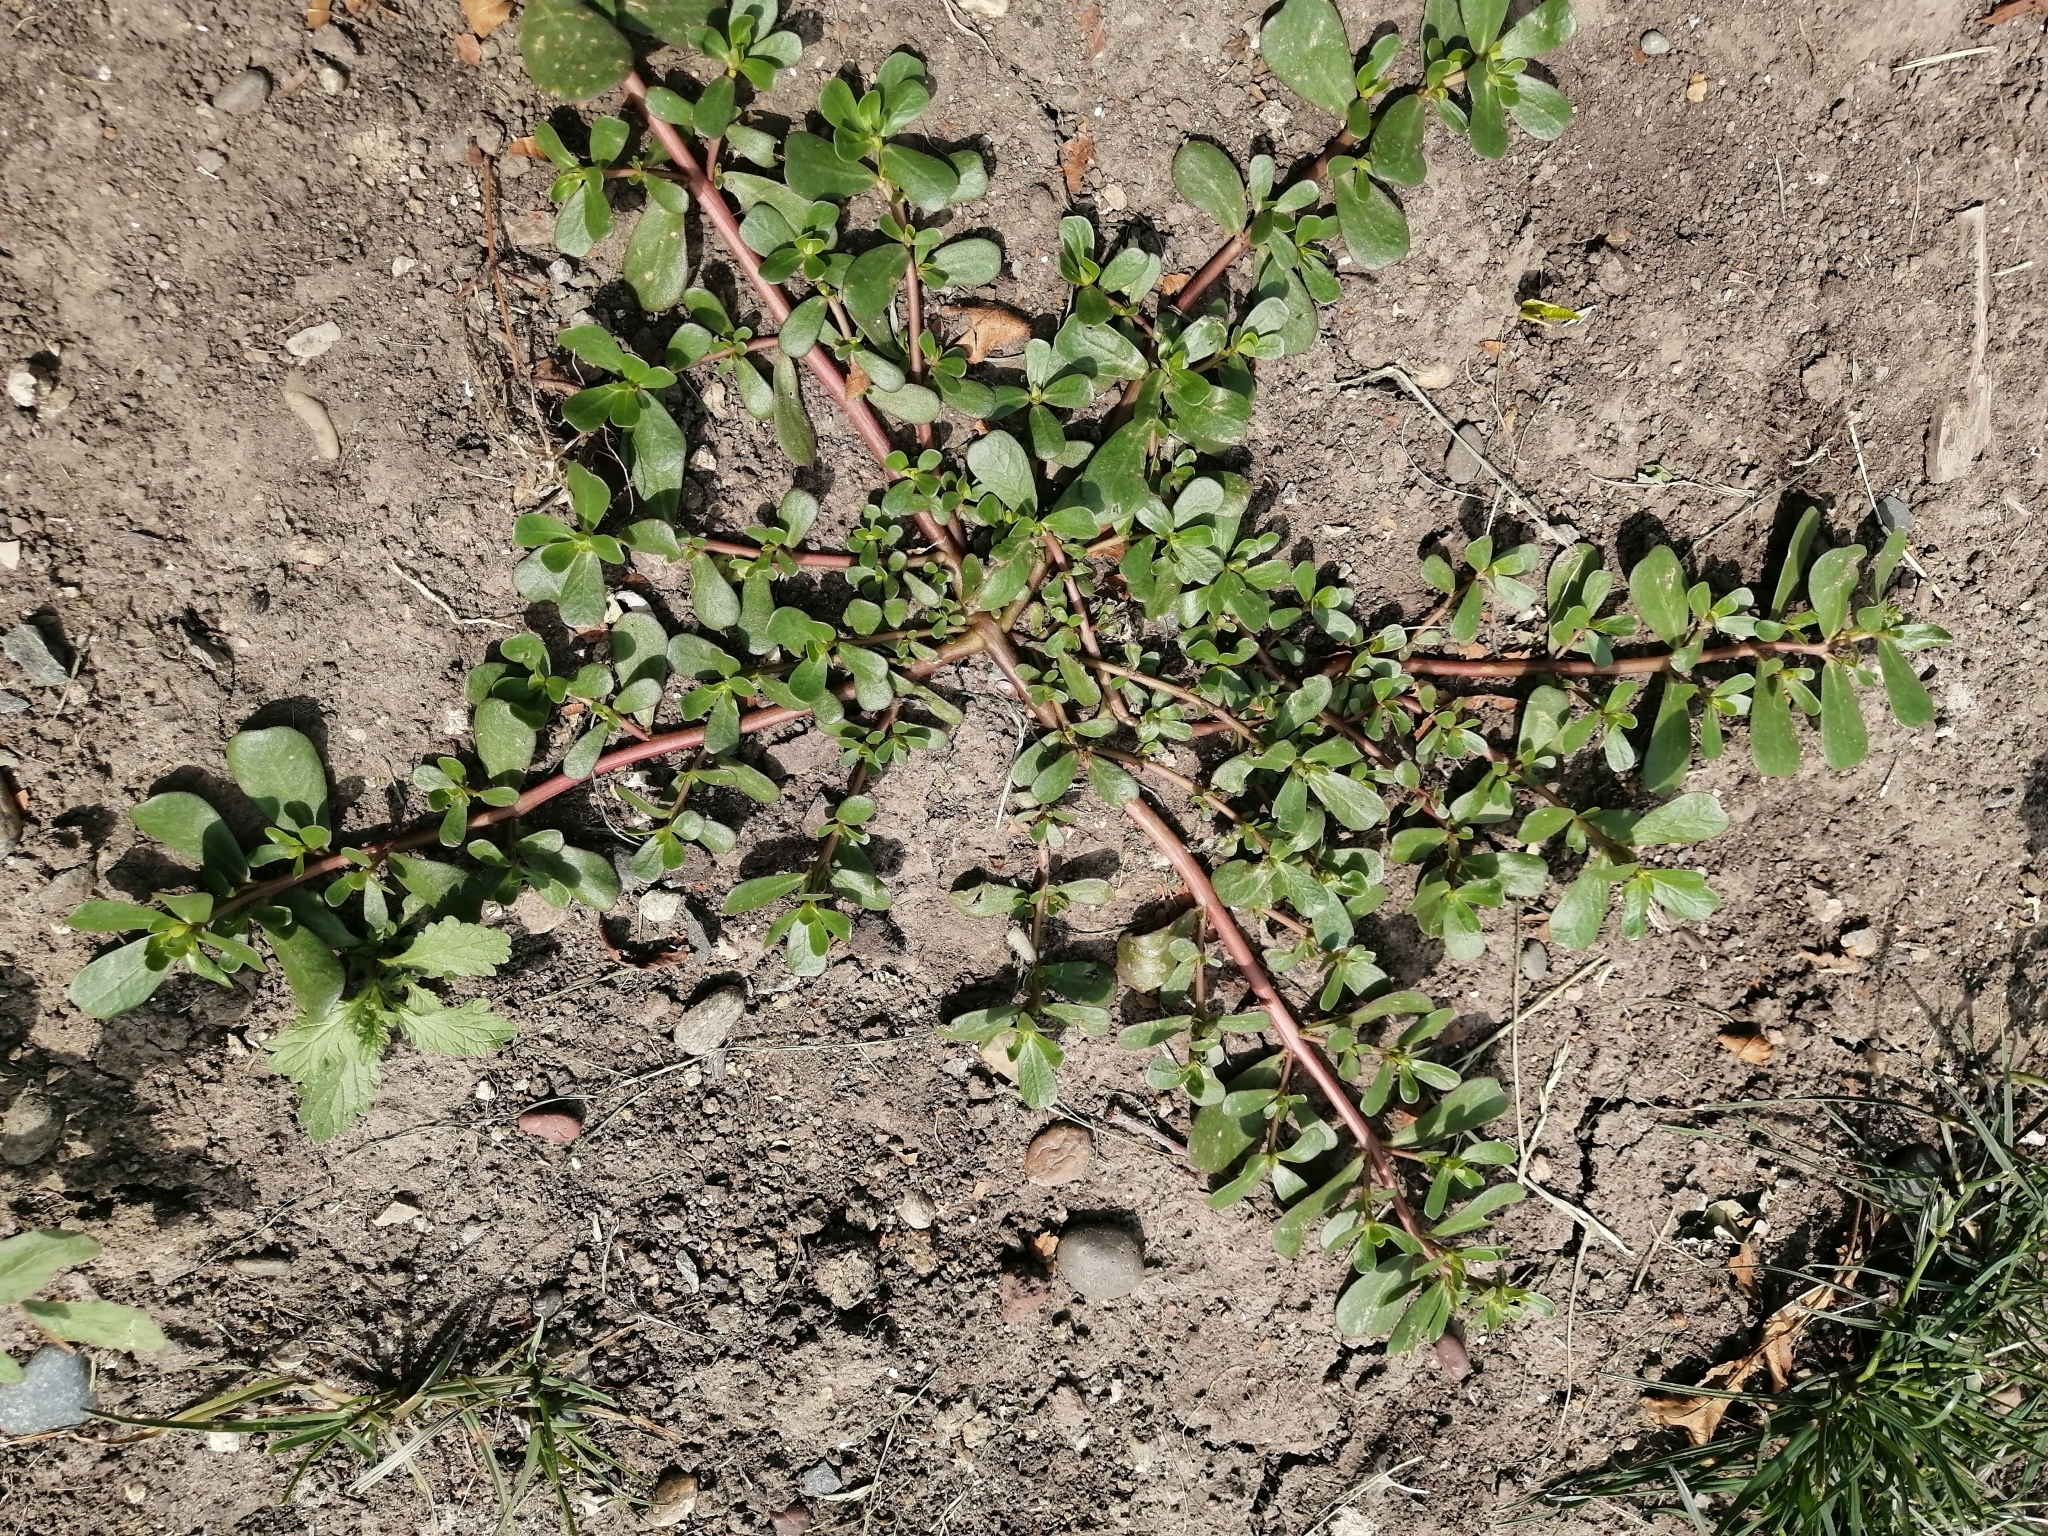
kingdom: Plantae
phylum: Tracheophyta
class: Magnoliopsida
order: Caryophyllales
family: Portulacaceae
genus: Portulaca
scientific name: Portulaca oleracea
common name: Common purslane
